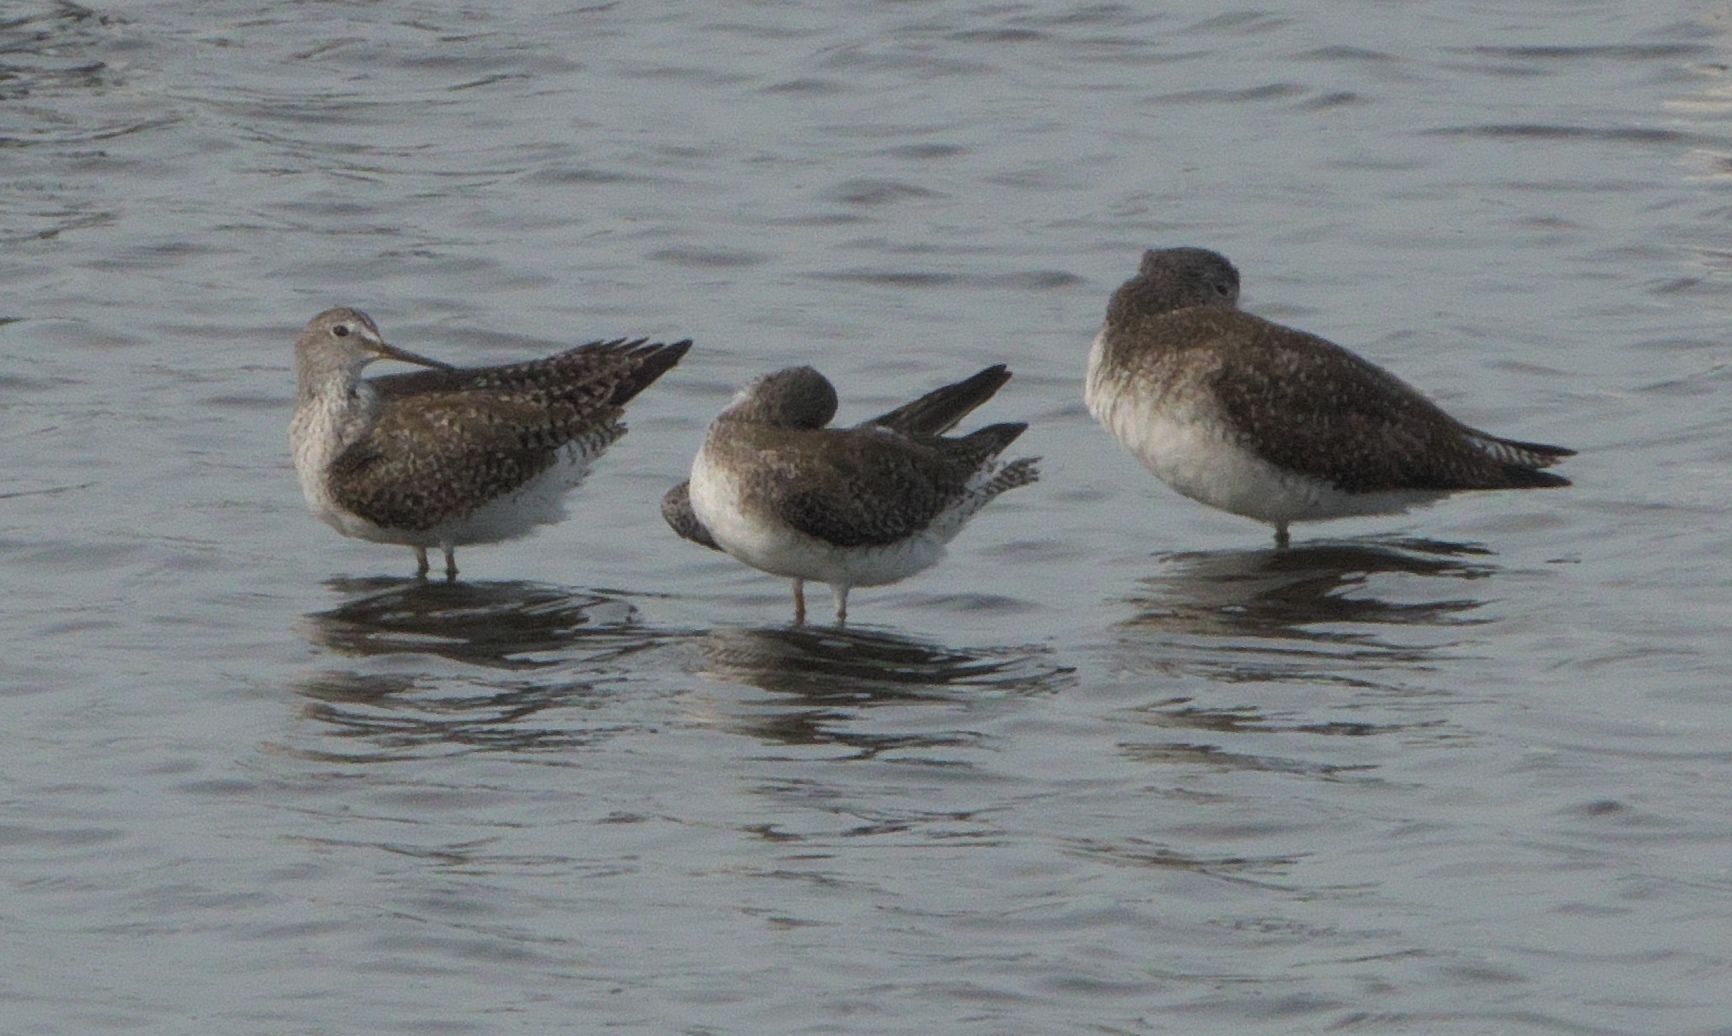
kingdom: Animalia
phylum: Chordata
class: Aves
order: Charadriiformes
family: Scolopacidae
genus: Tringa
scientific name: Tringa melanoleuca
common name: Greater yellowlegs
